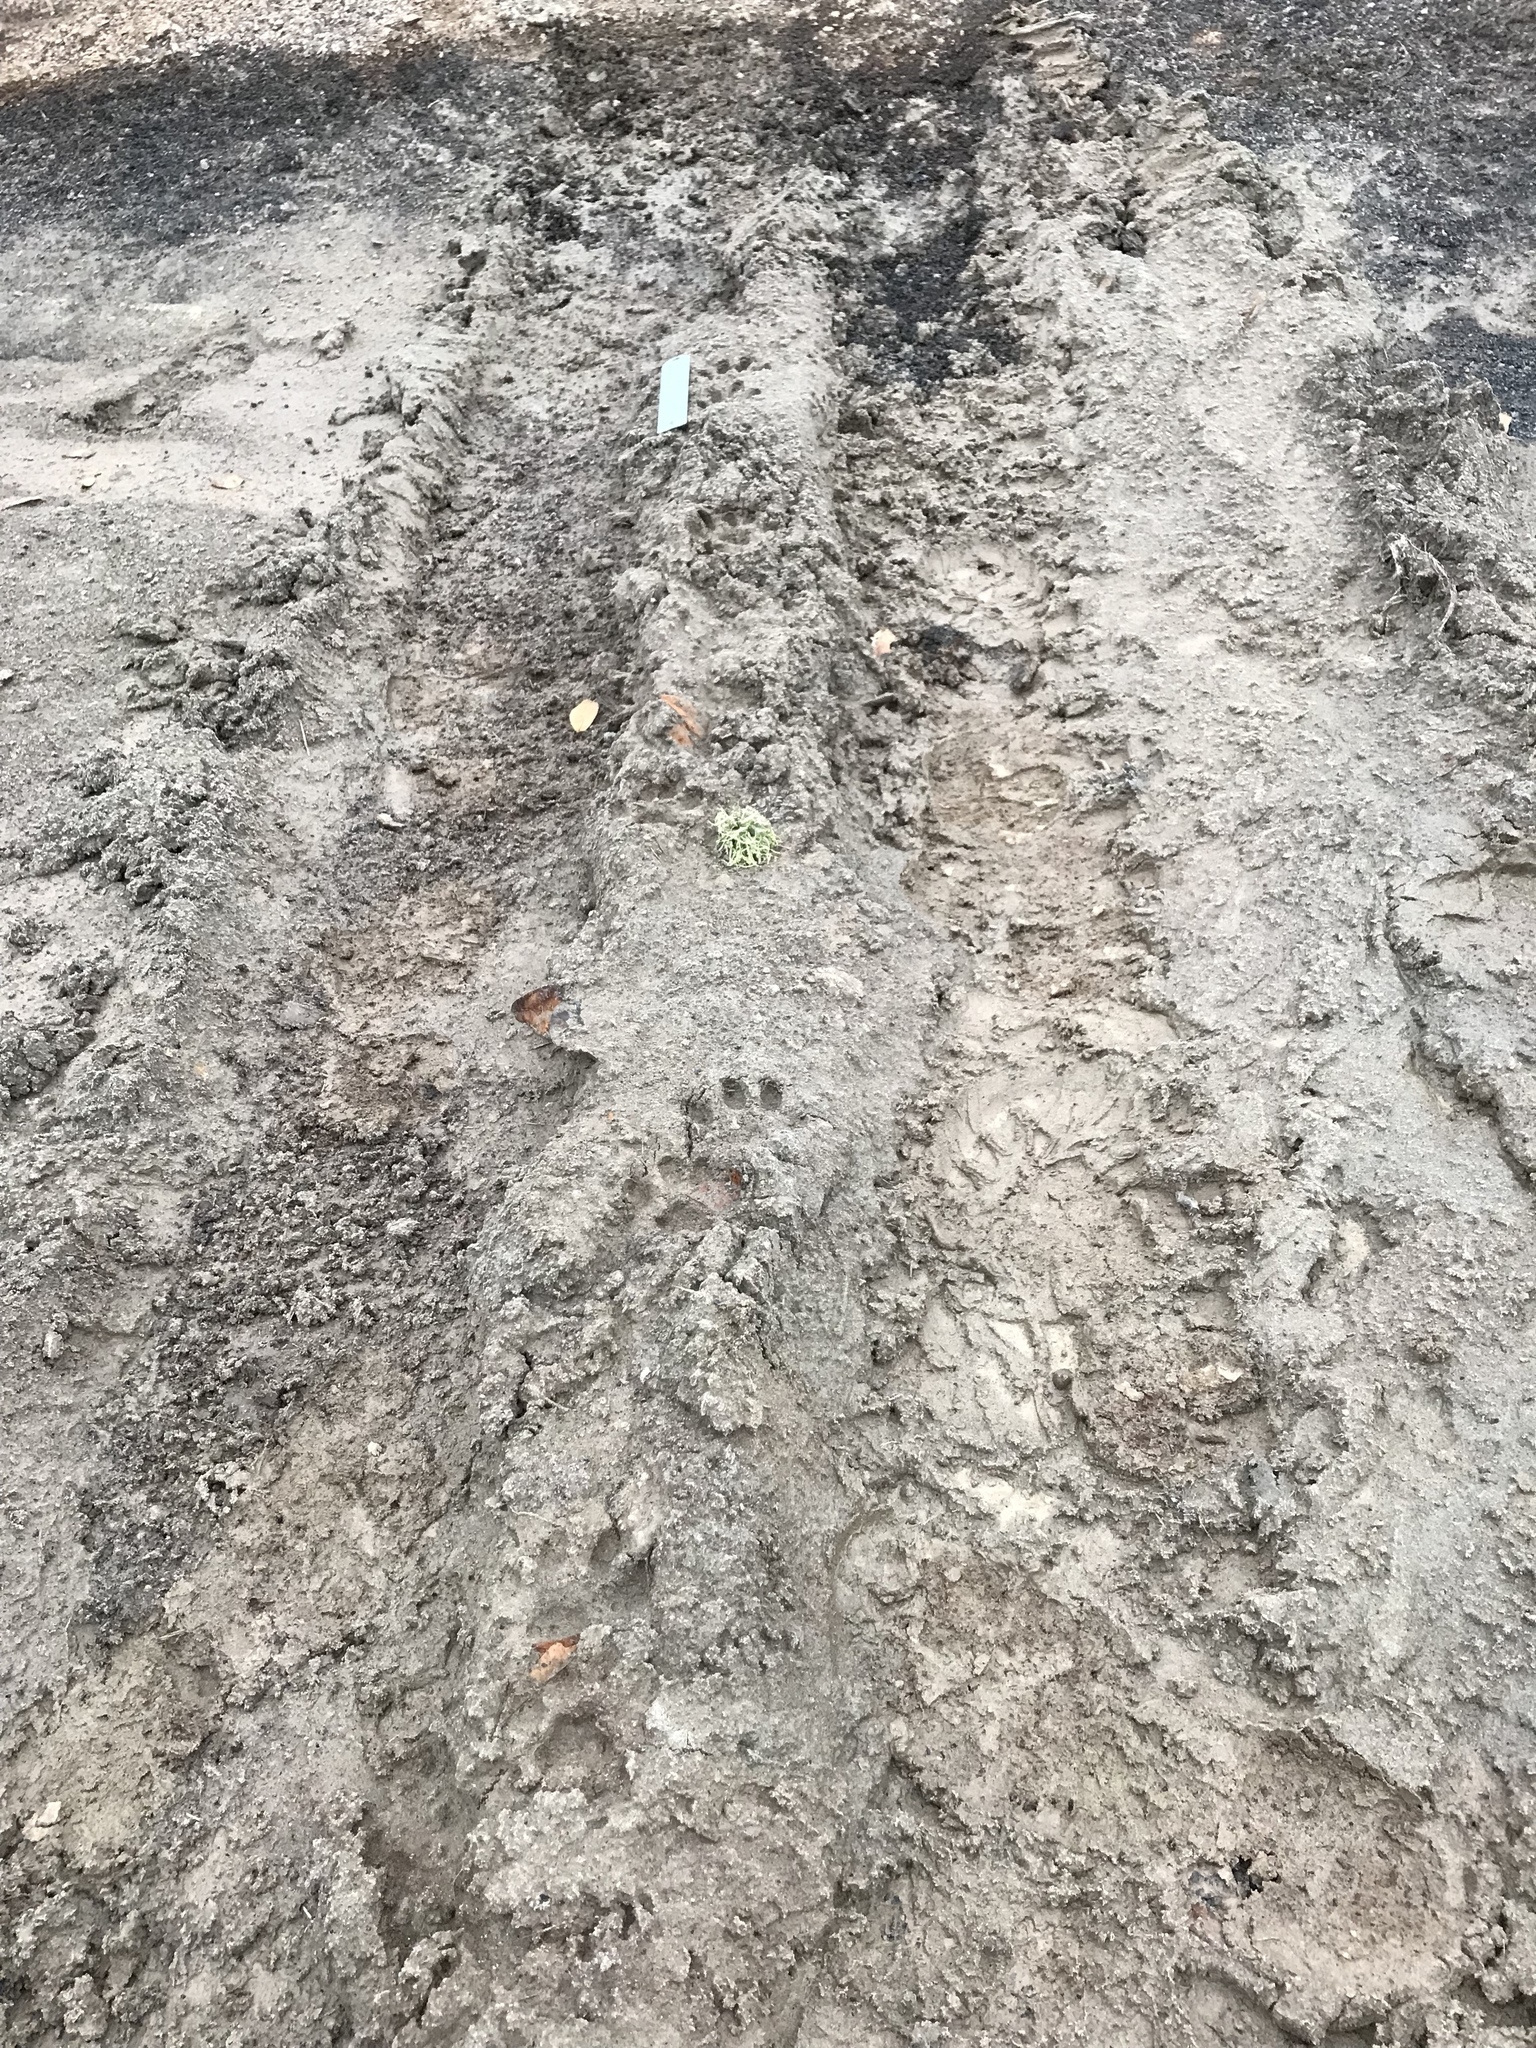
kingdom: Animalia
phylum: Chordata
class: Mammalia
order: Carnivora
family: Felidae
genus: Lynx
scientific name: Lynx rufus
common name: Bobcat
